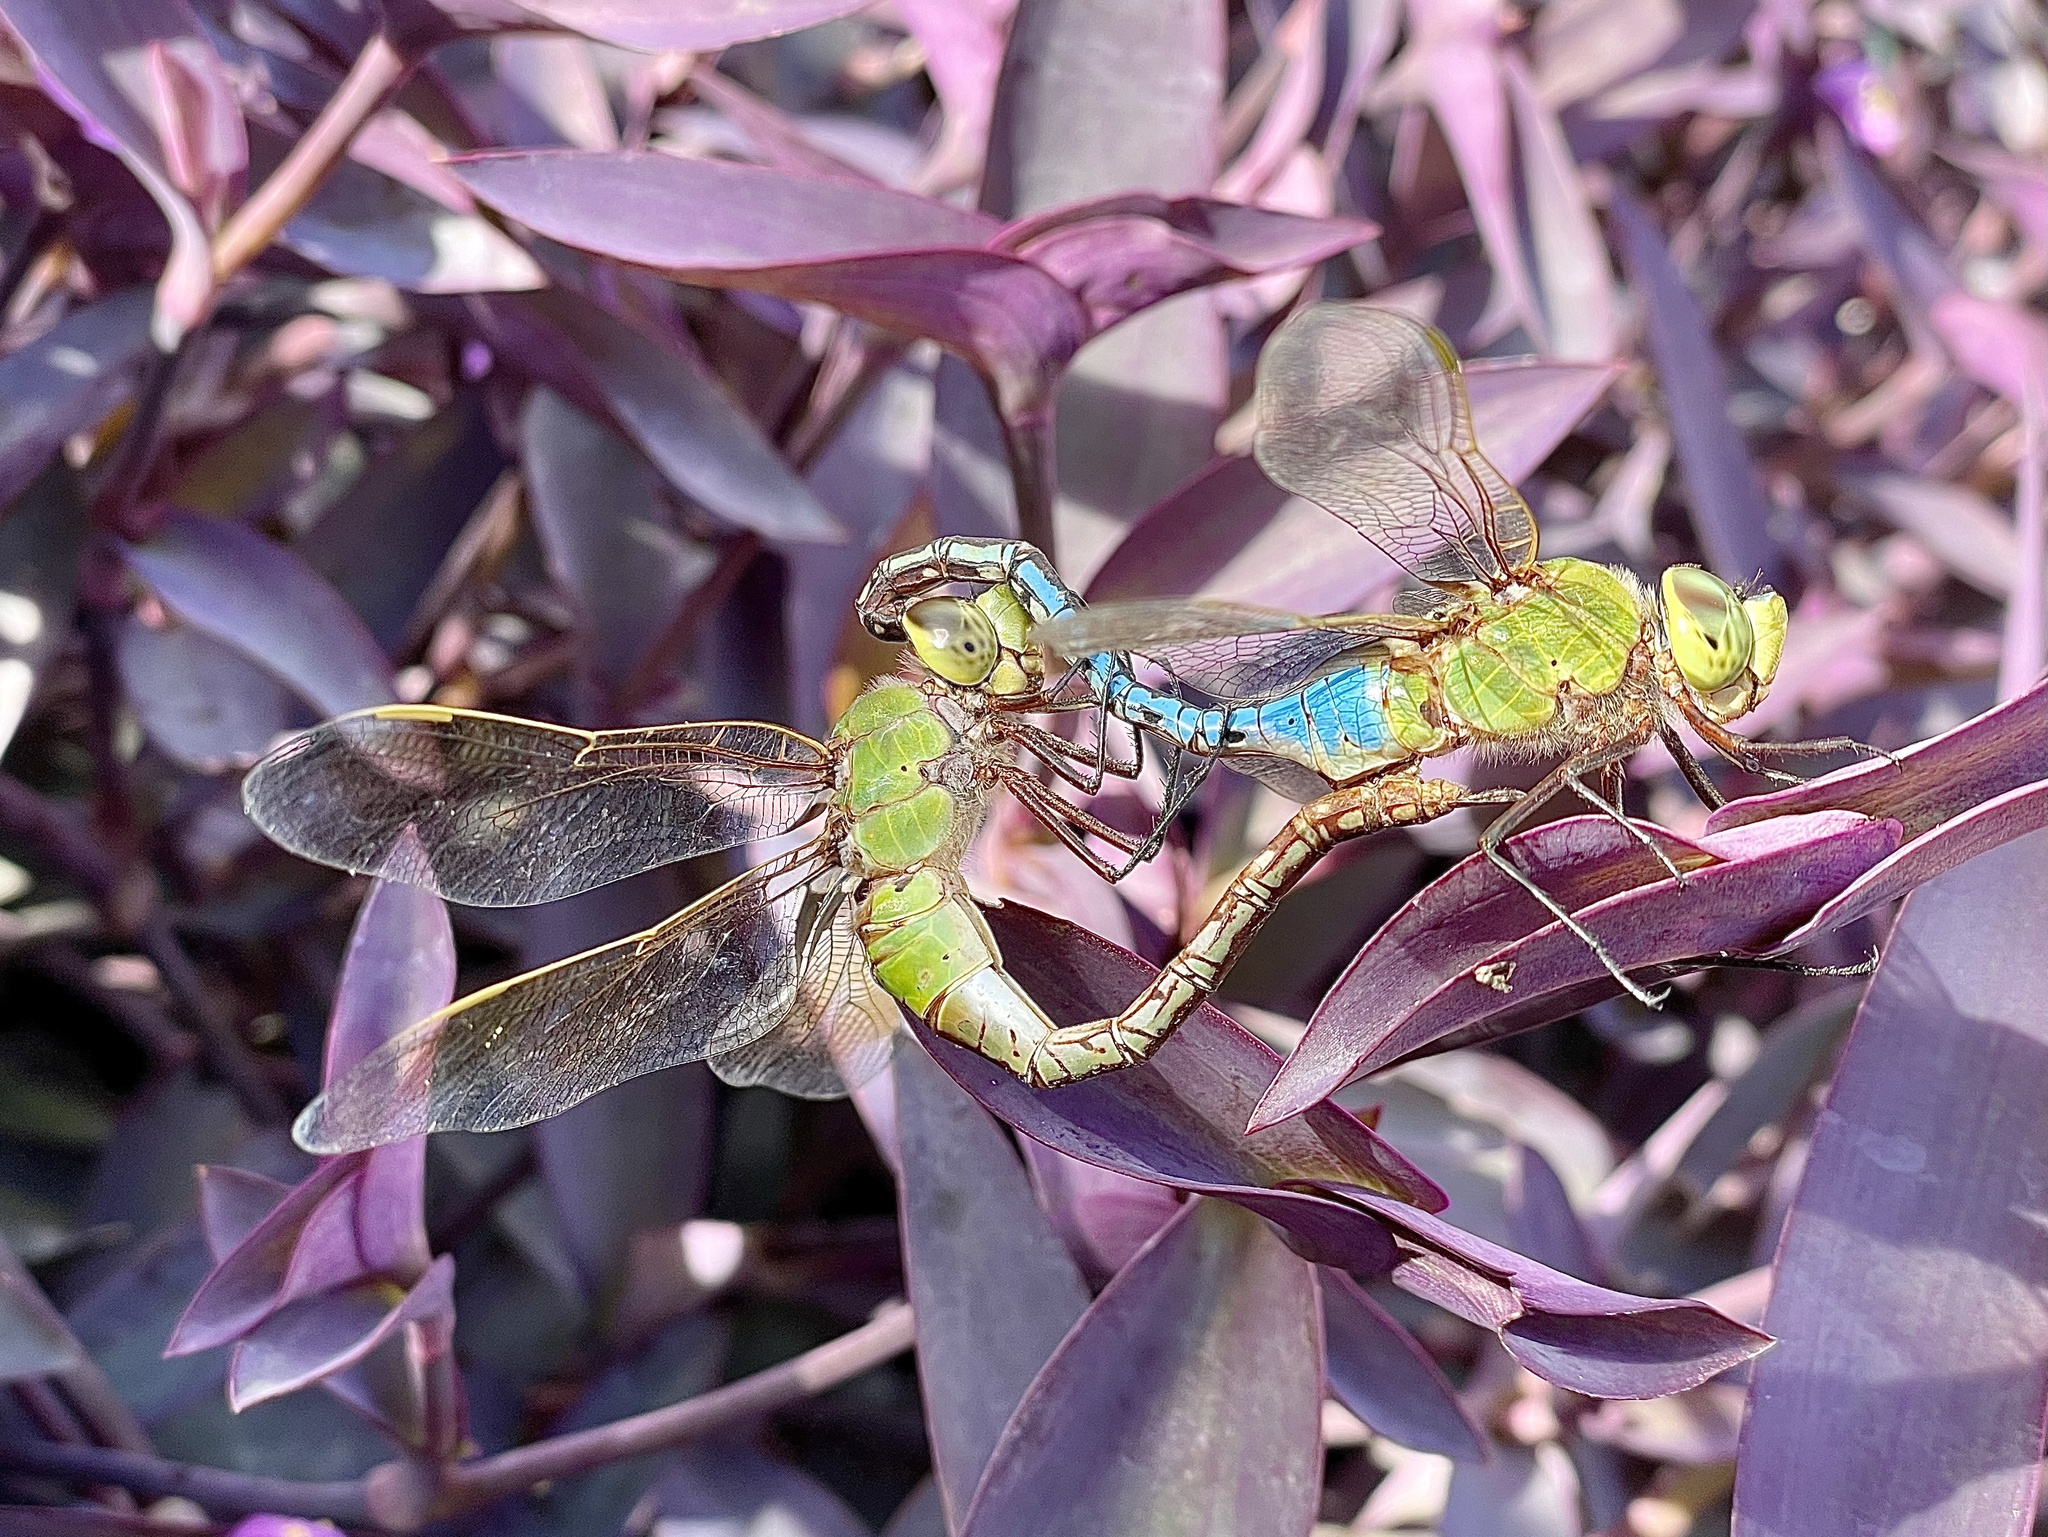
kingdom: Animalia
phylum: Arthropoda
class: Insecta
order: Odonata
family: Aeshnidae
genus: Anax
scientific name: Anax junius
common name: Common green darner
